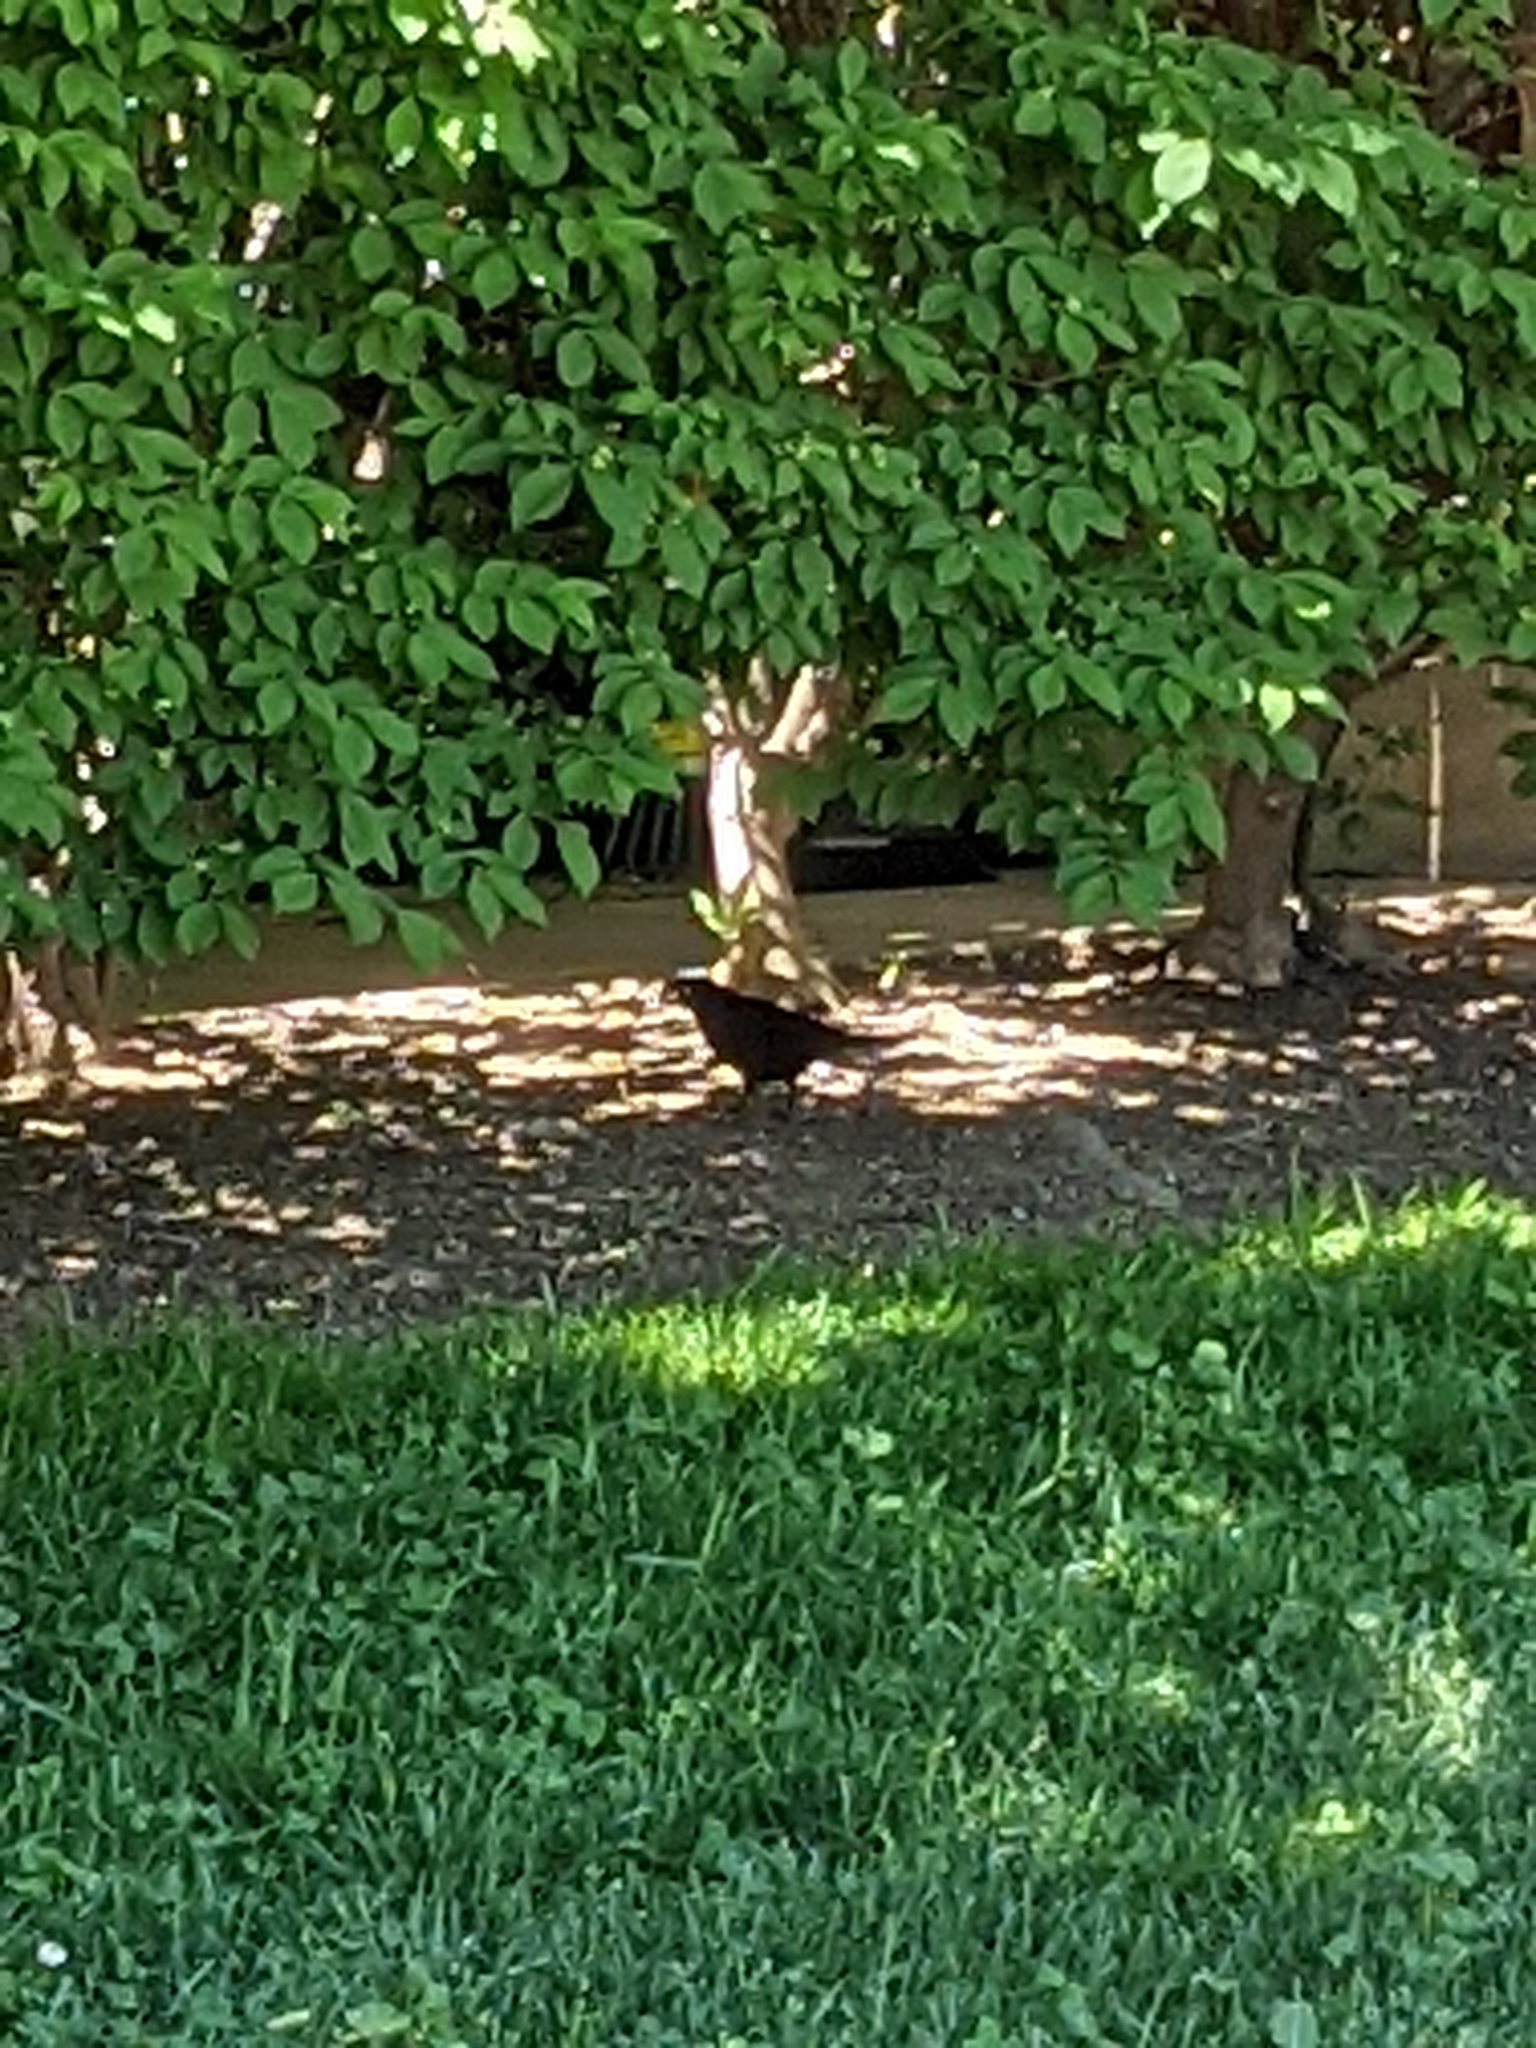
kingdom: Animalia
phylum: Chordata
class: Aves
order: Passeriformes
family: Icteridae
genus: Quiscalus
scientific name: Quiscalus quiscula
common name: Common grackle
